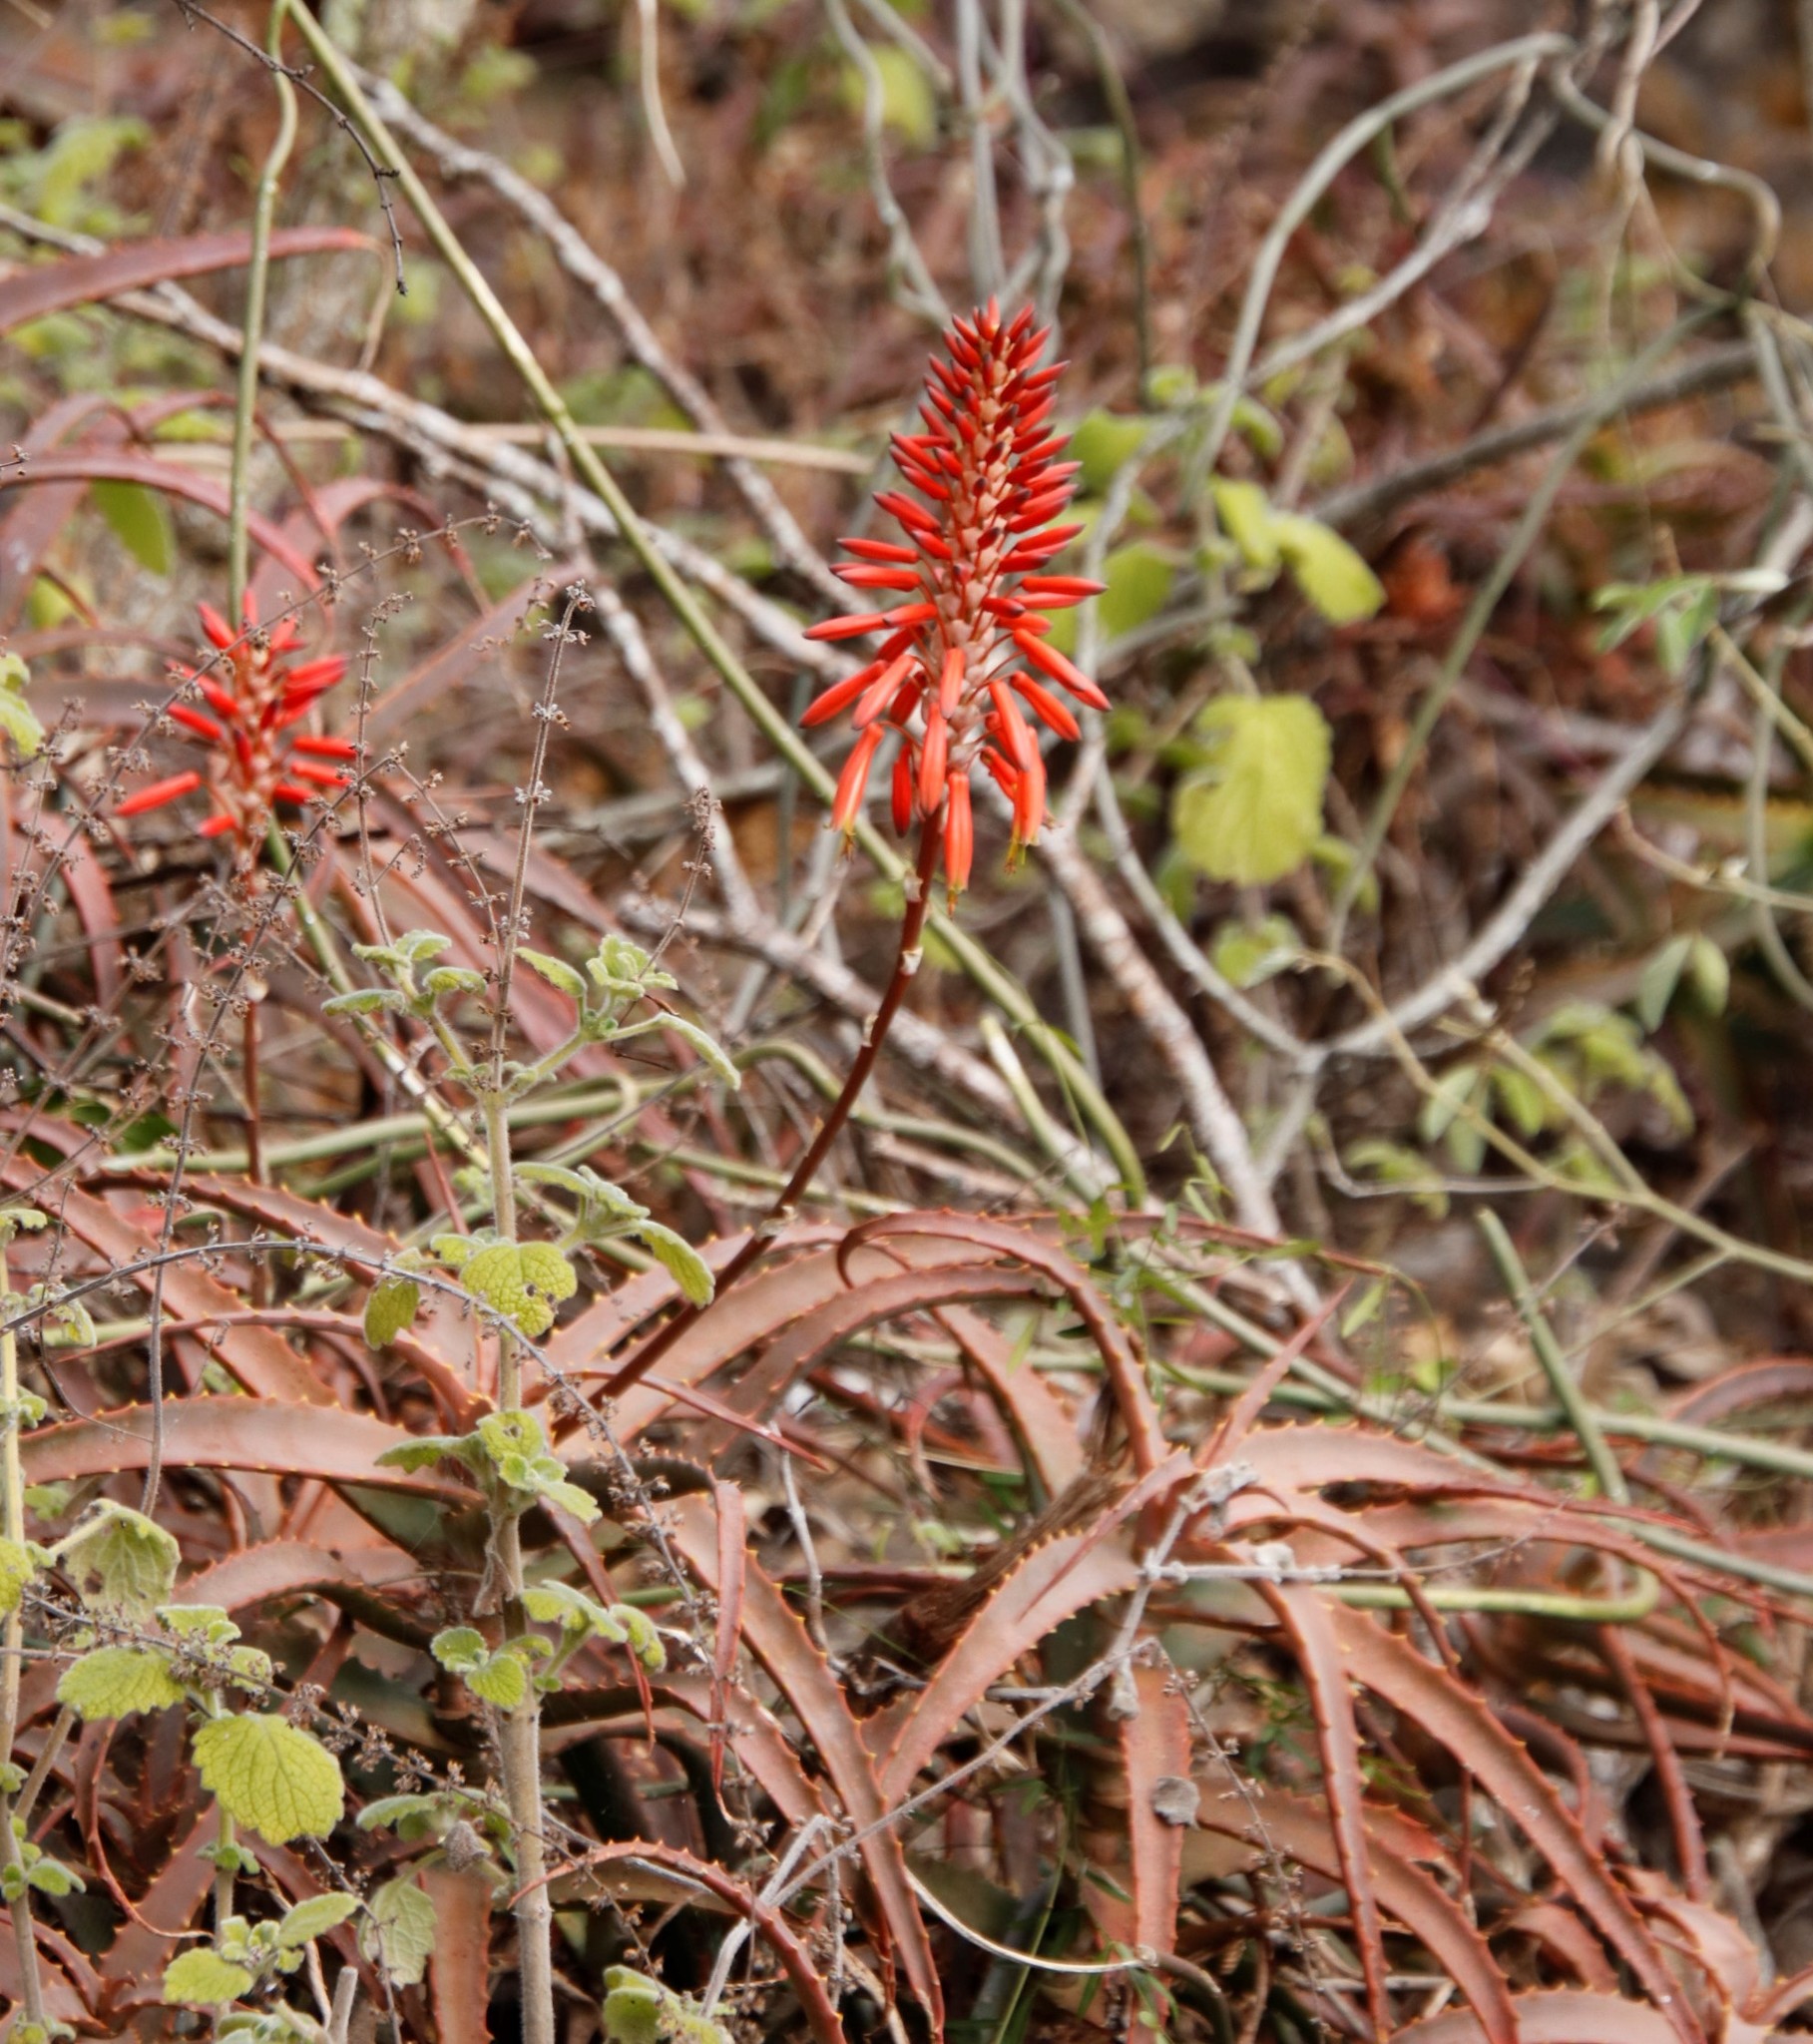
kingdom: Plantae
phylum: Tracheophyta
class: Liliopsida
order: Asparagales
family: Asphodelaceae
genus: Aloe
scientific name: Aloe arborescens
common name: Candelabra aloe
